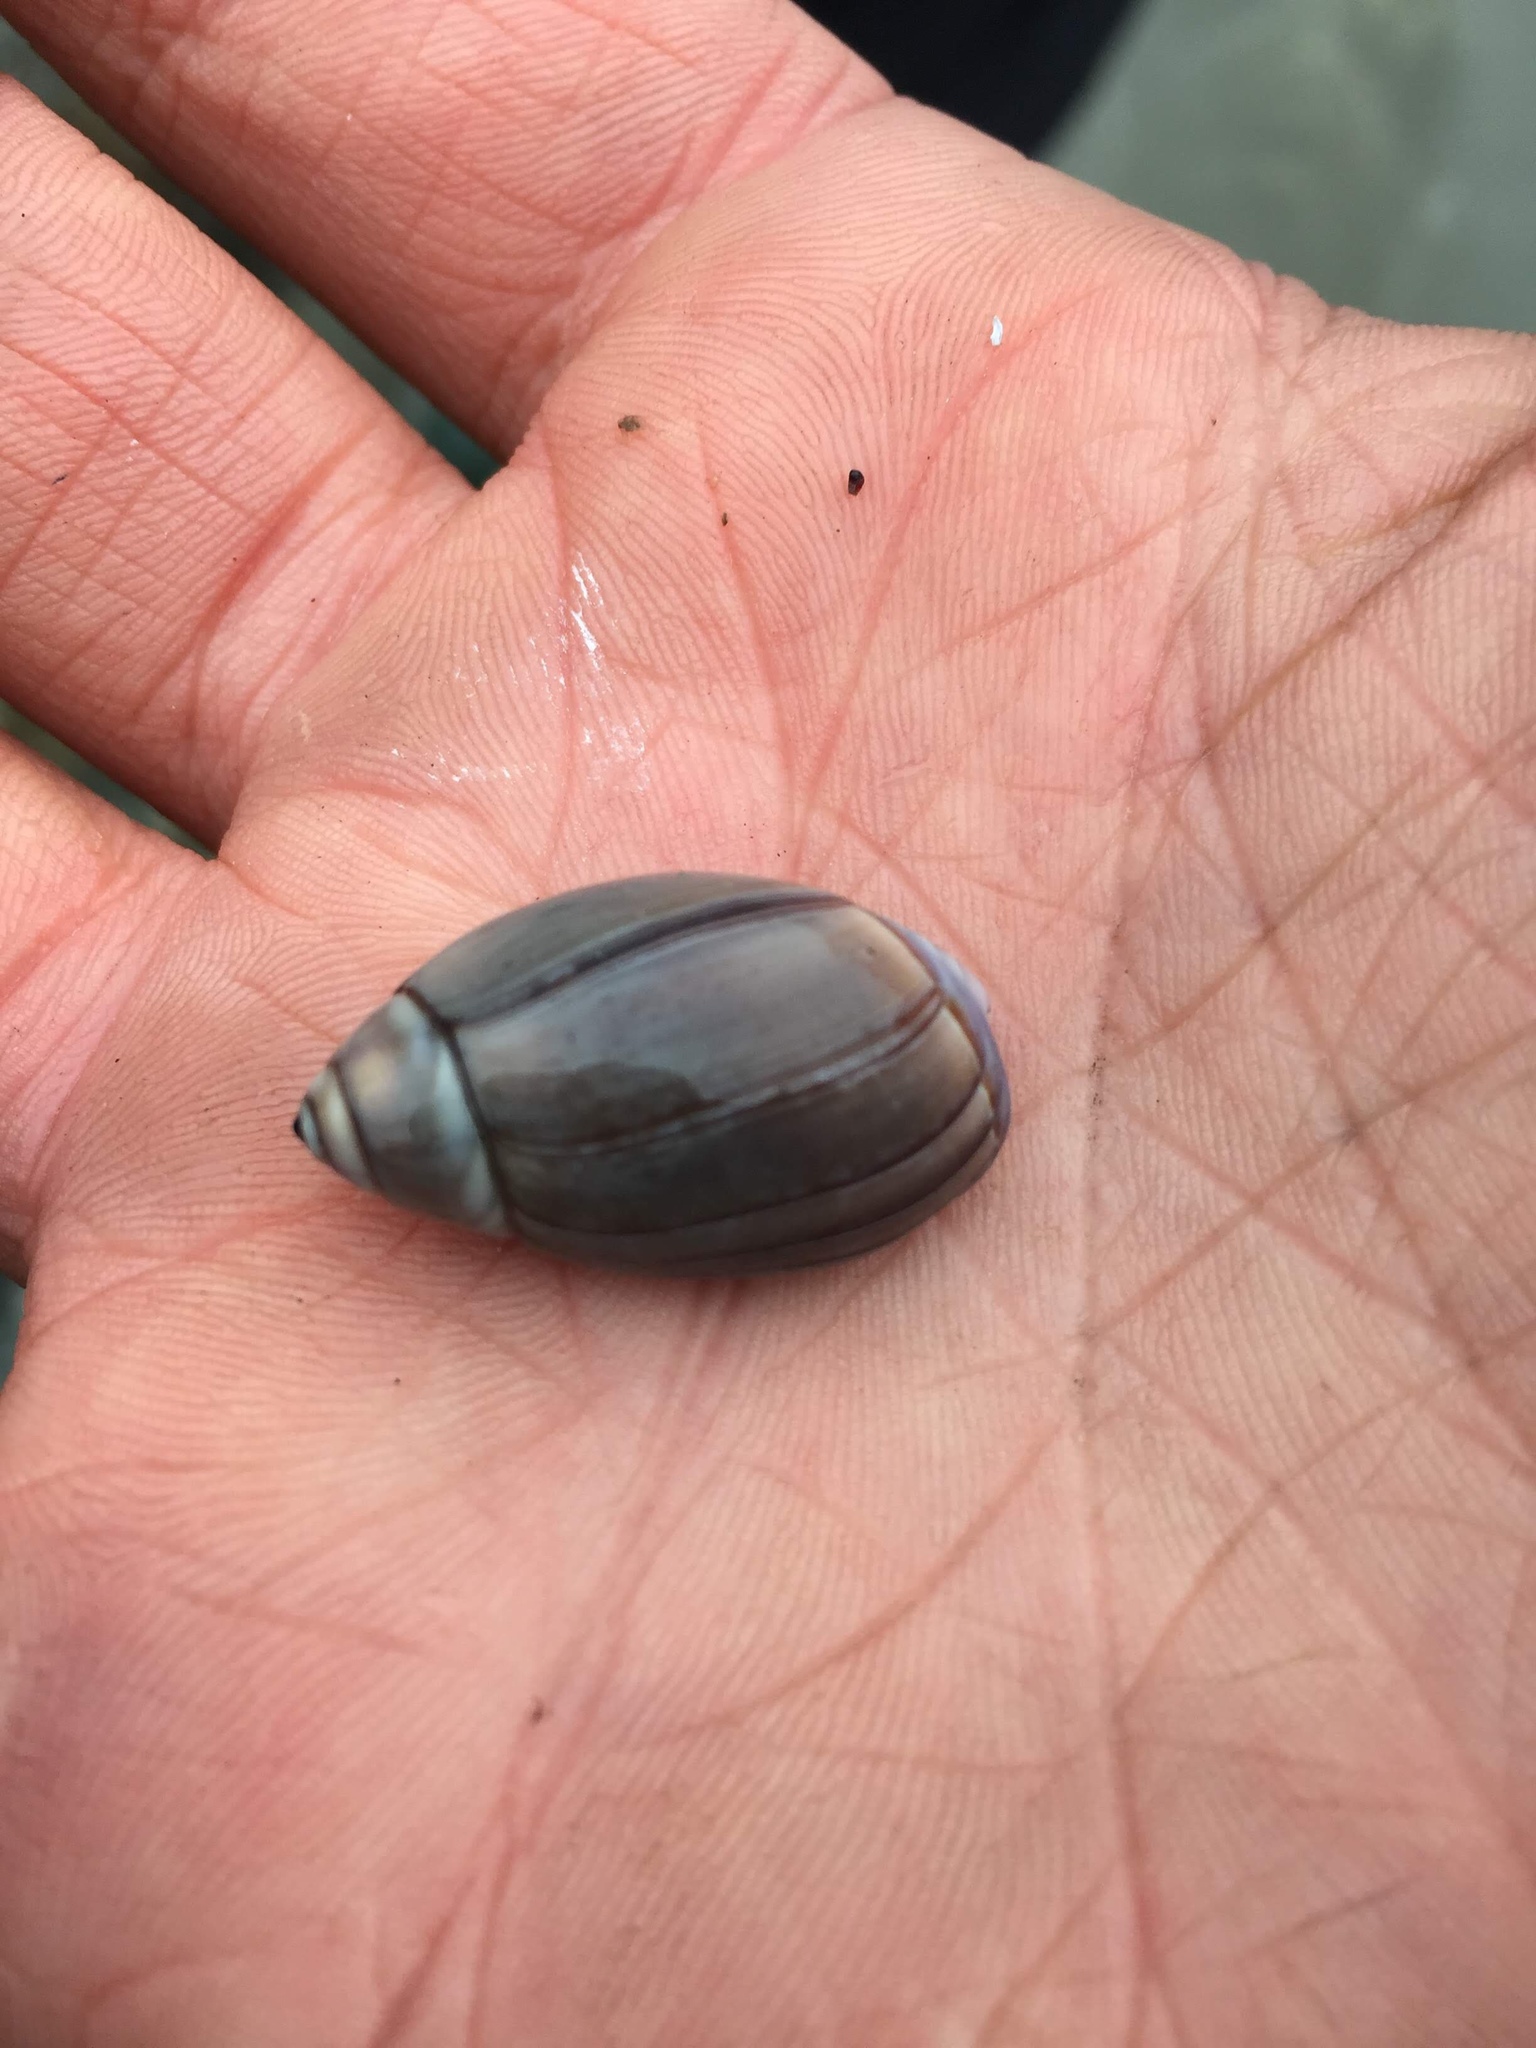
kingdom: Animalia
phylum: Mollusca
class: Gastropoda
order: Neogastropoda
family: Olividae
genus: Callianax
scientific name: Callianax biplicata
